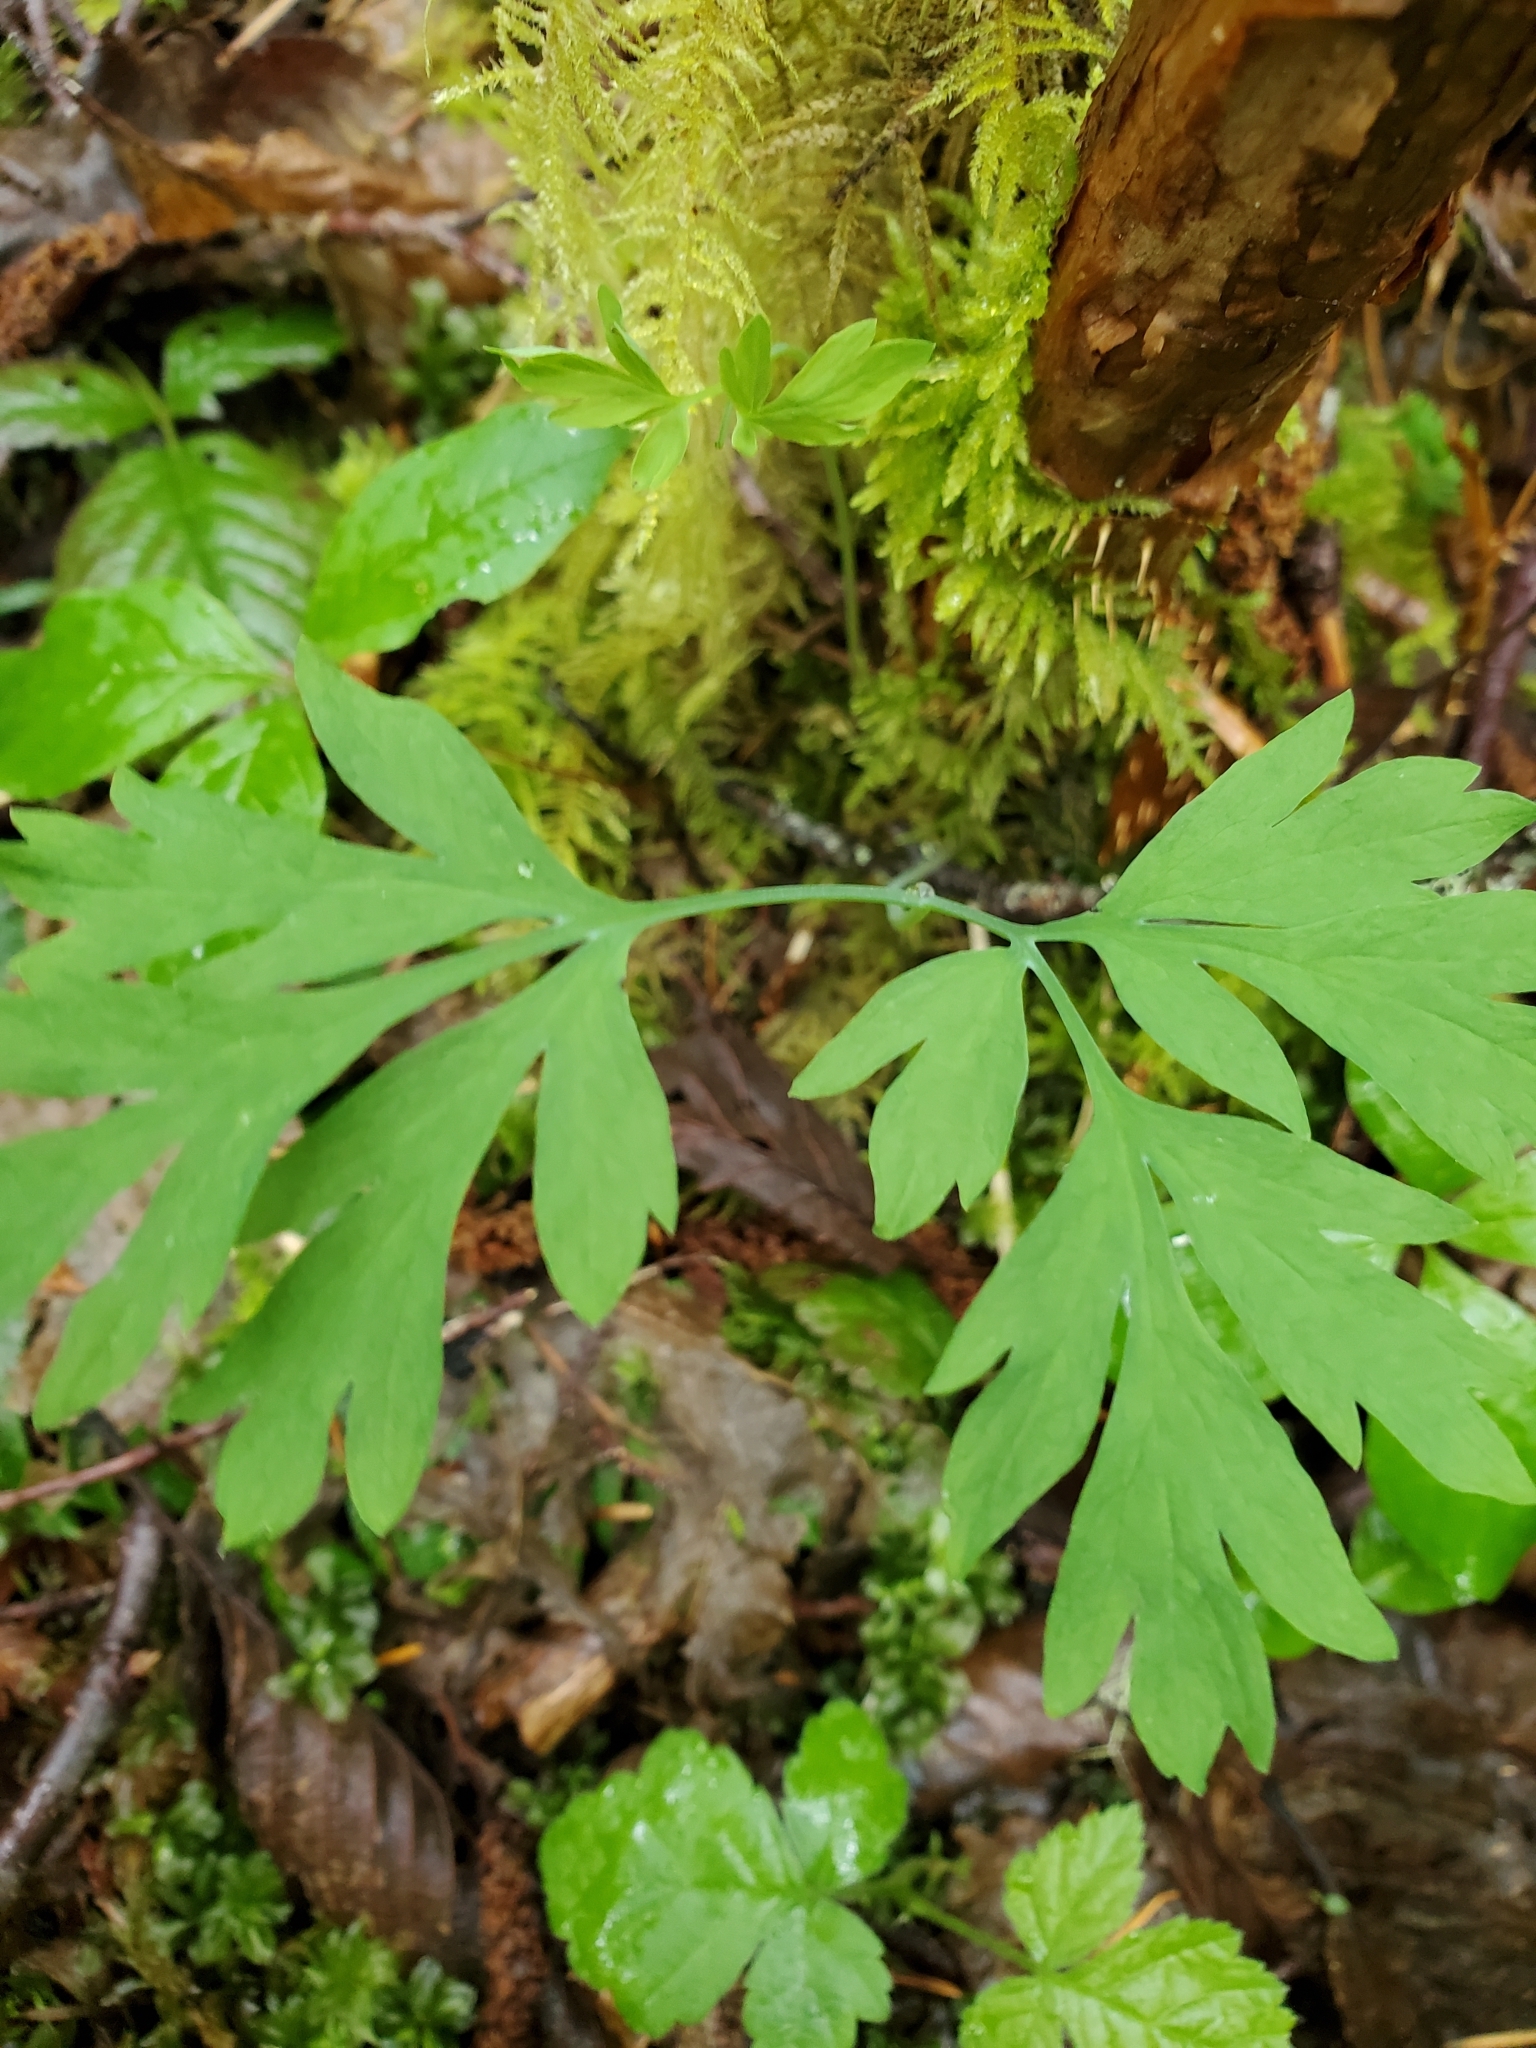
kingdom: Plantae
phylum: Tracheophyta
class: Magnoliopsida
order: Ranunculales
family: Papaveraceae
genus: Dicentra
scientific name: Dicentra formosa
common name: Bleeding-heart
